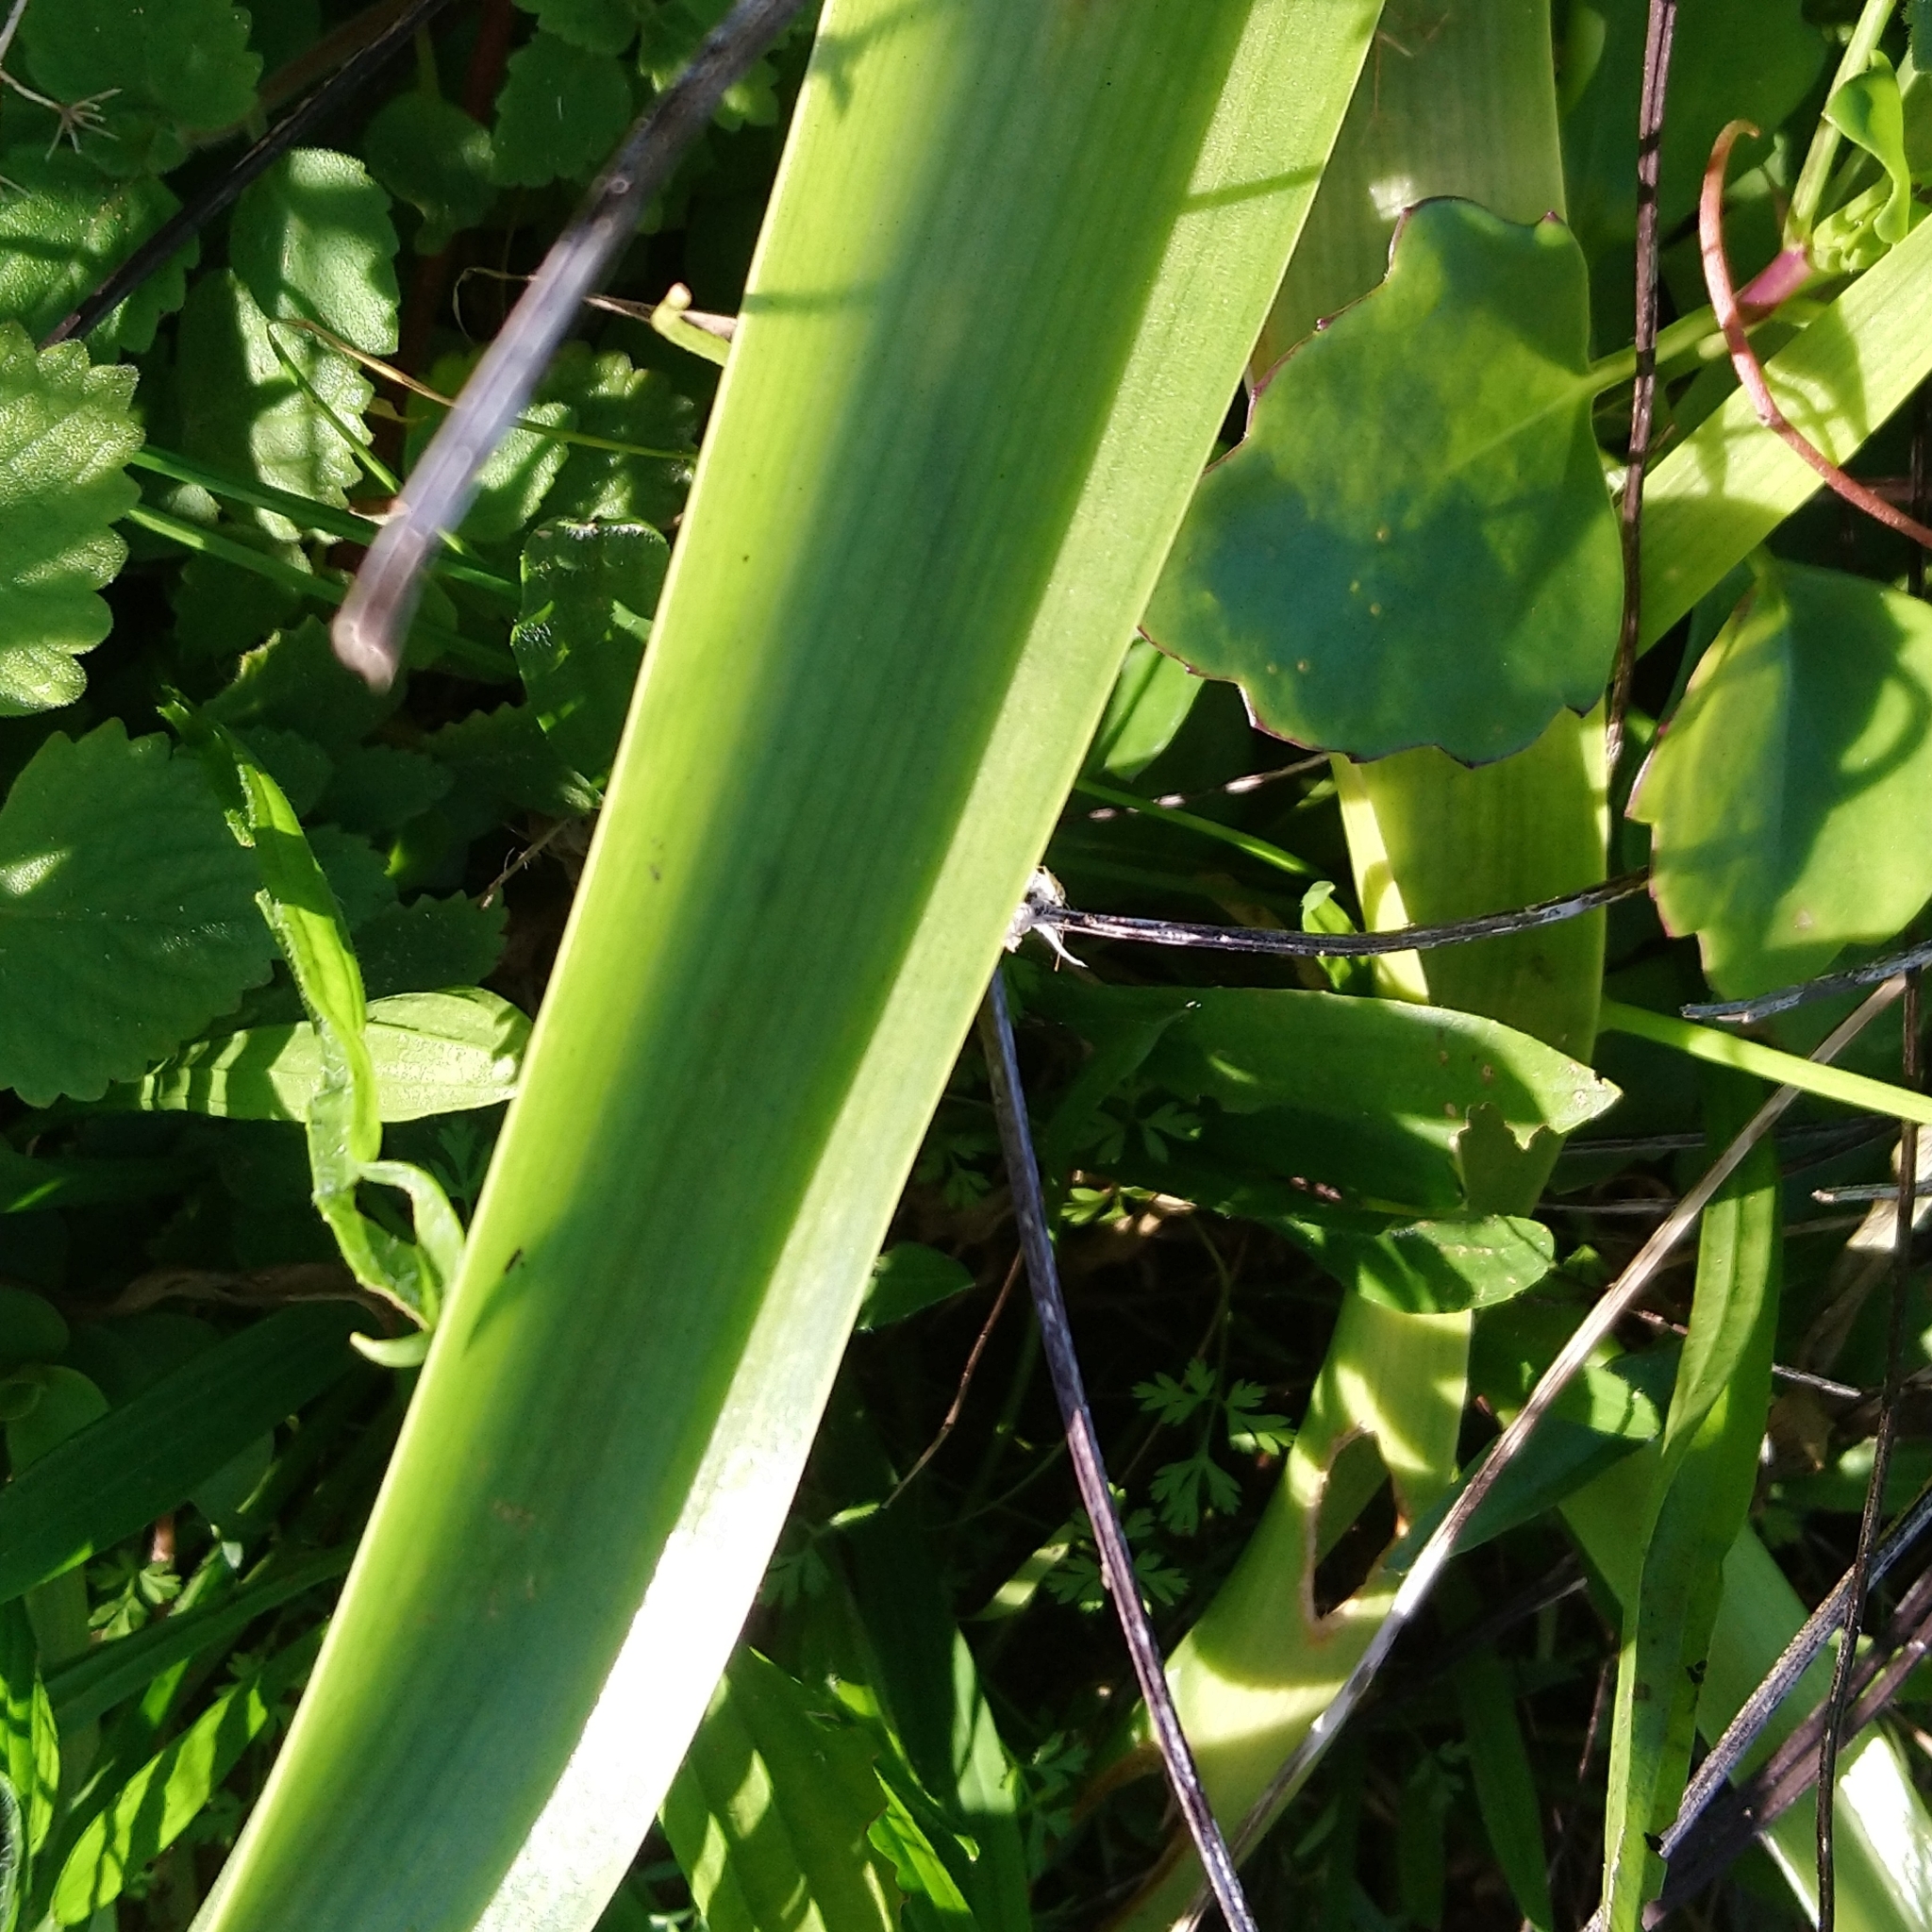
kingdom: Plantae
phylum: Tracheophyta
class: Liliopsida
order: Asparagales
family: Asparagaceae
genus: Albuca
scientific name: Albuca bracteata
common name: Sea-onion
